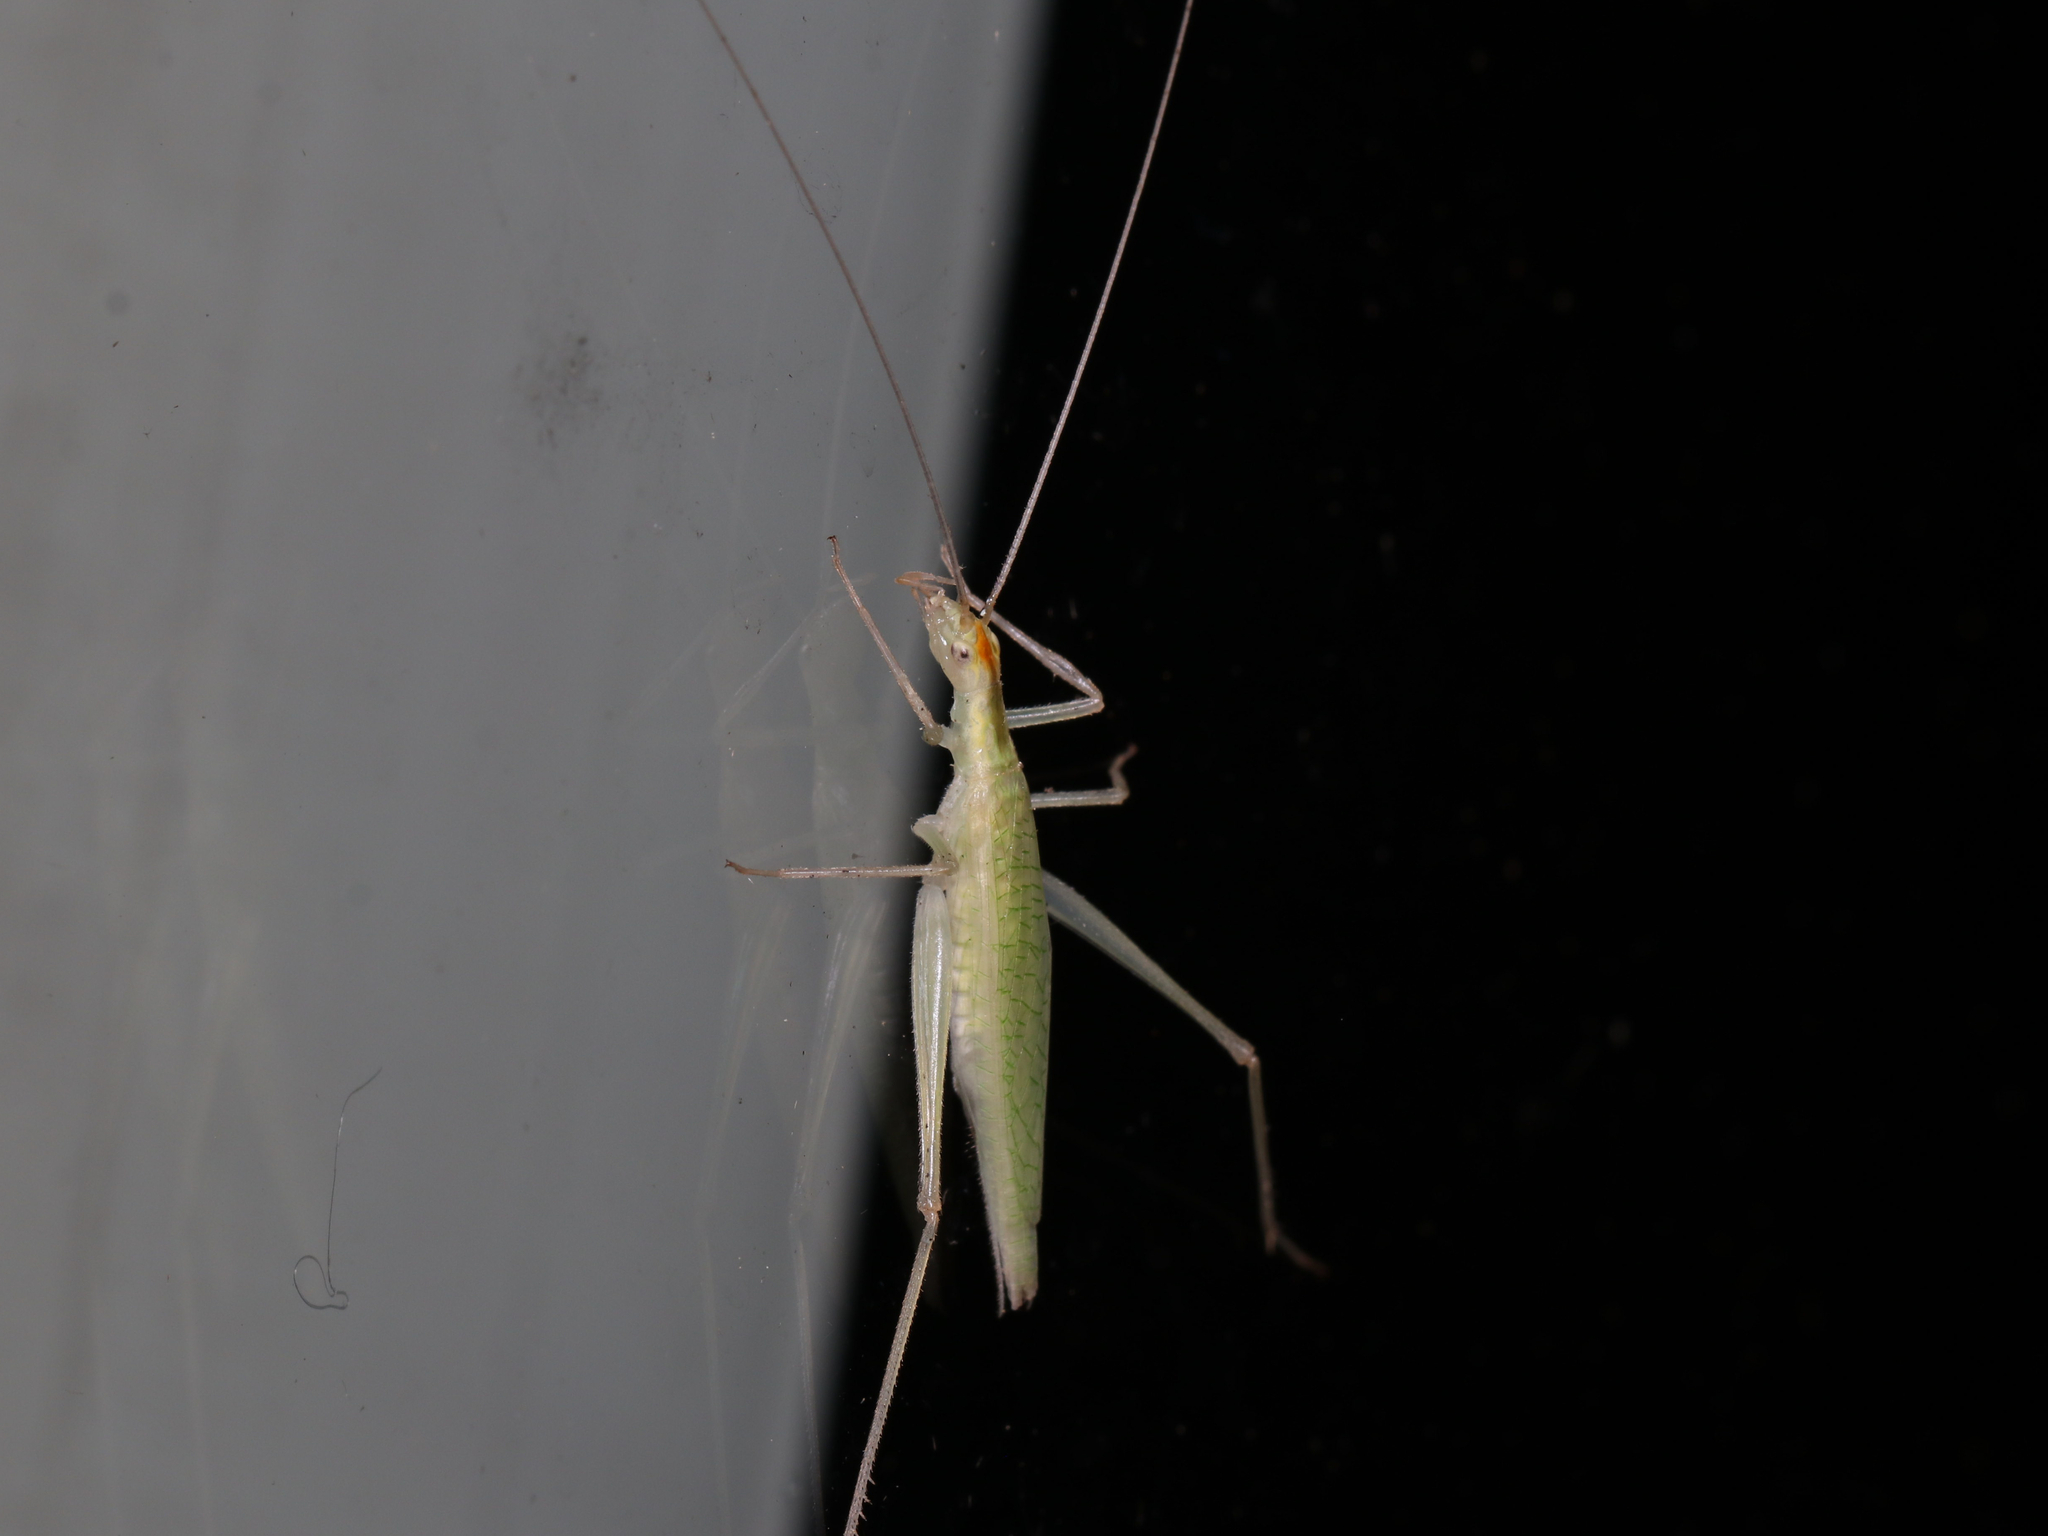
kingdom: Animalia
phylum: Arthropoda
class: Insecta
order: Orthoptera
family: Gryllidae
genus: Oecanthus
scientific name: Oecanthus niveus
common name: Narrow-winged tree cricket
